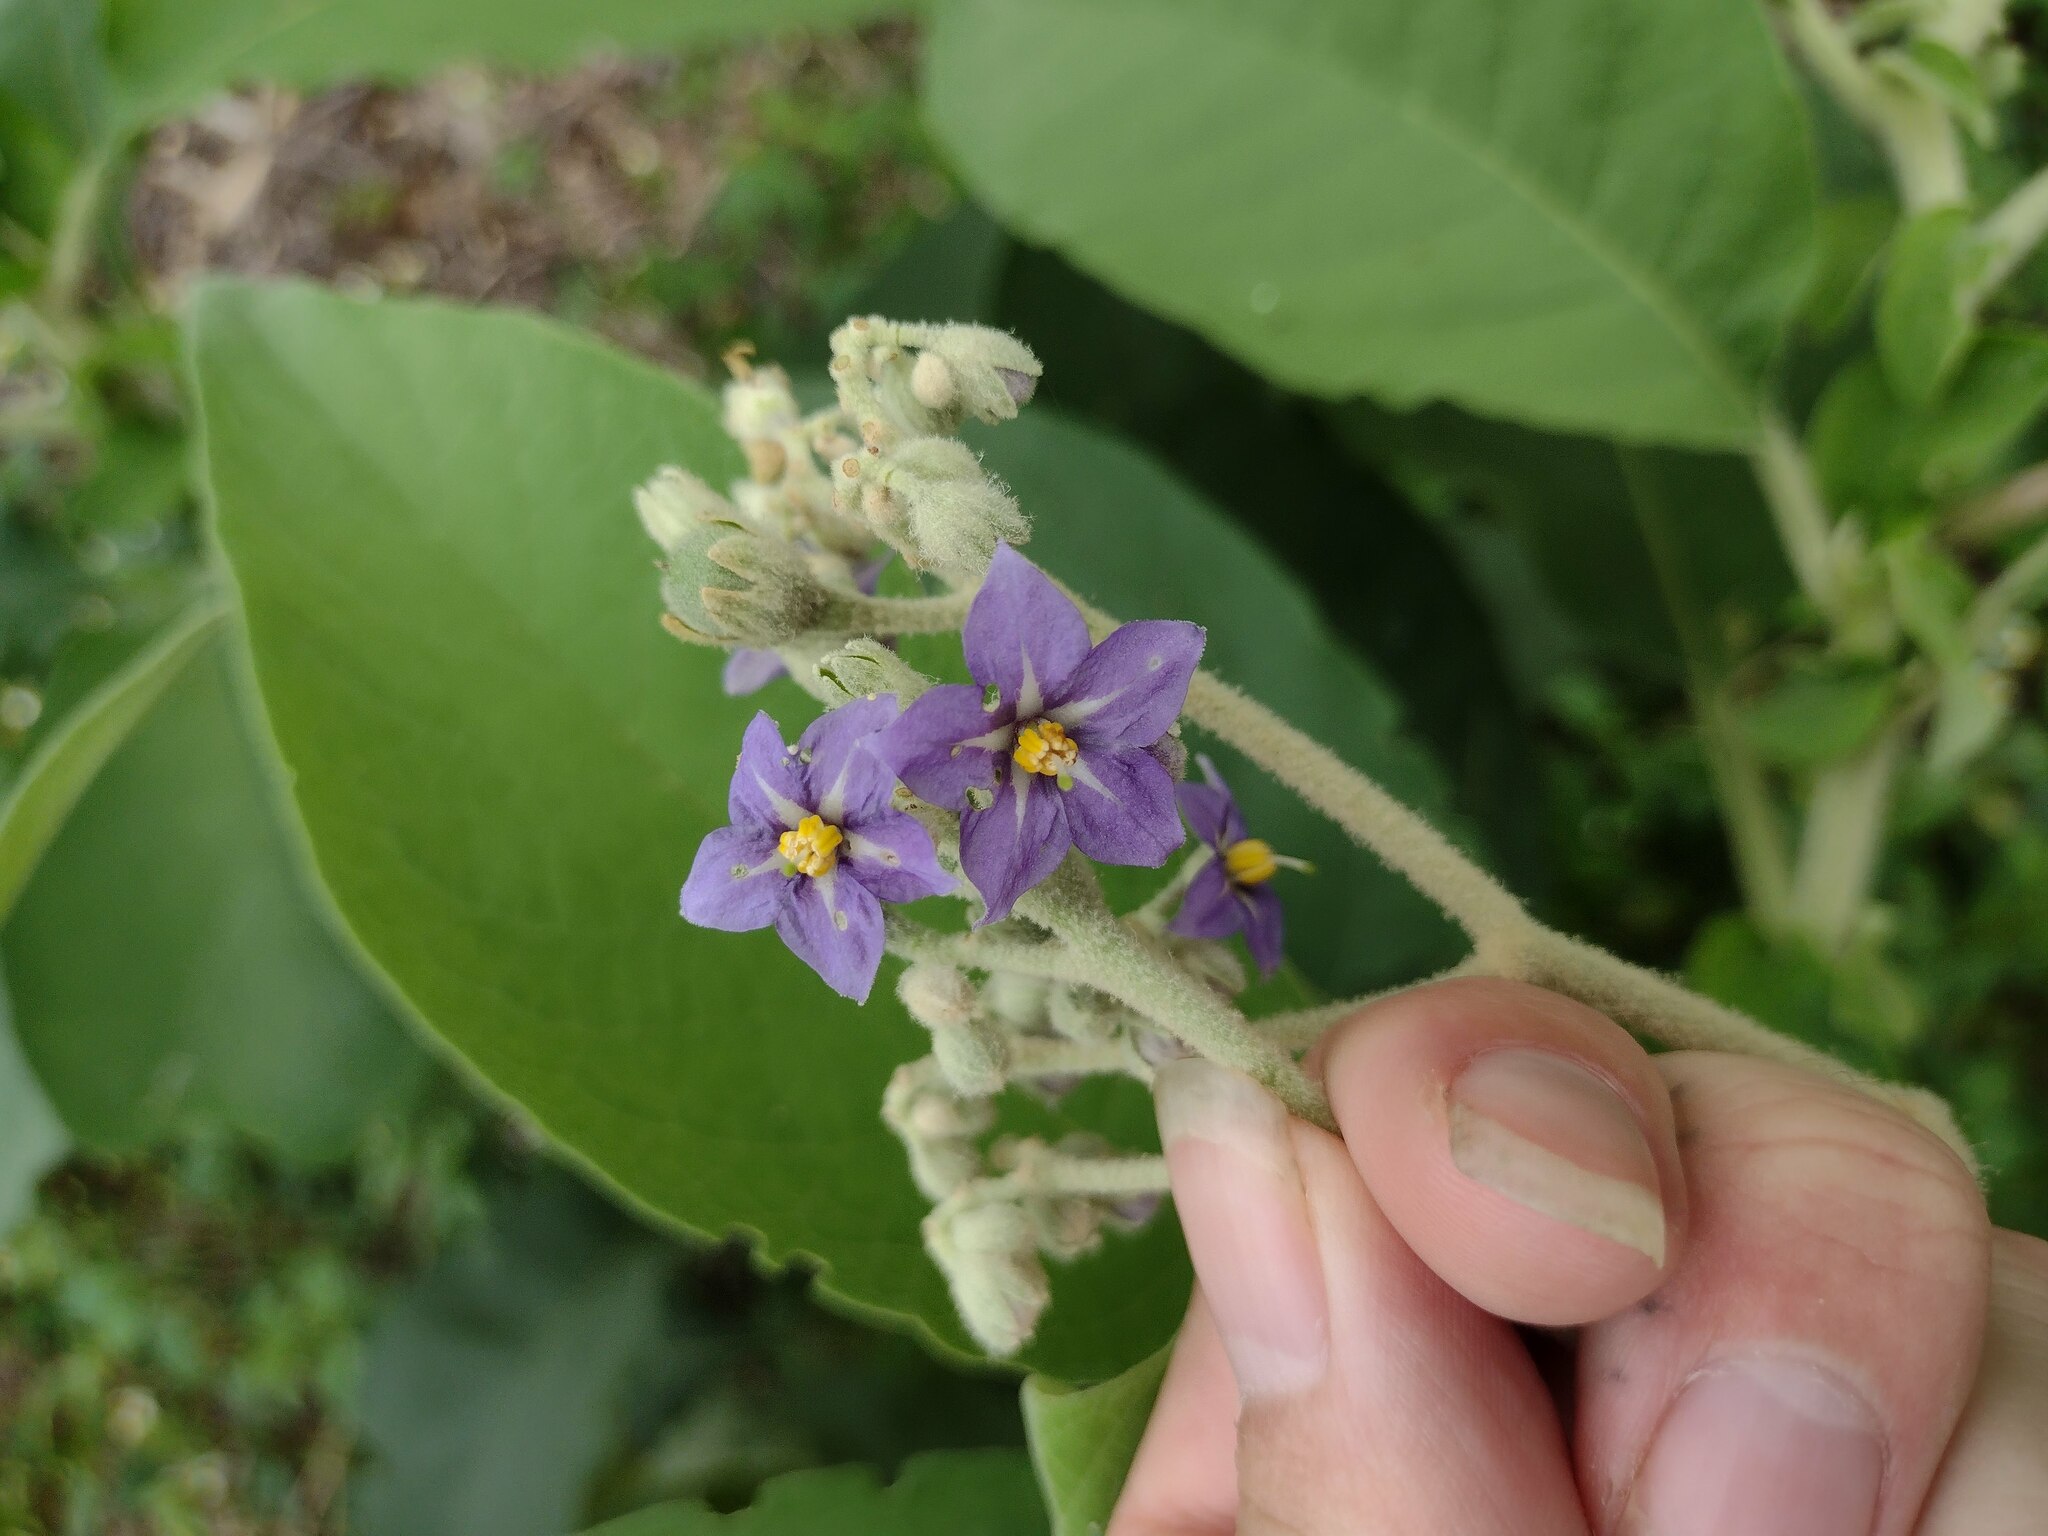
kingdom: Plantae
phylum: Tracheophyta
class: Magnoliopsida
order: Solanales
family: Solanaceae
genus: Solanum
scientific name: Solanum mauritianum
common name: Earleaf nightshade
